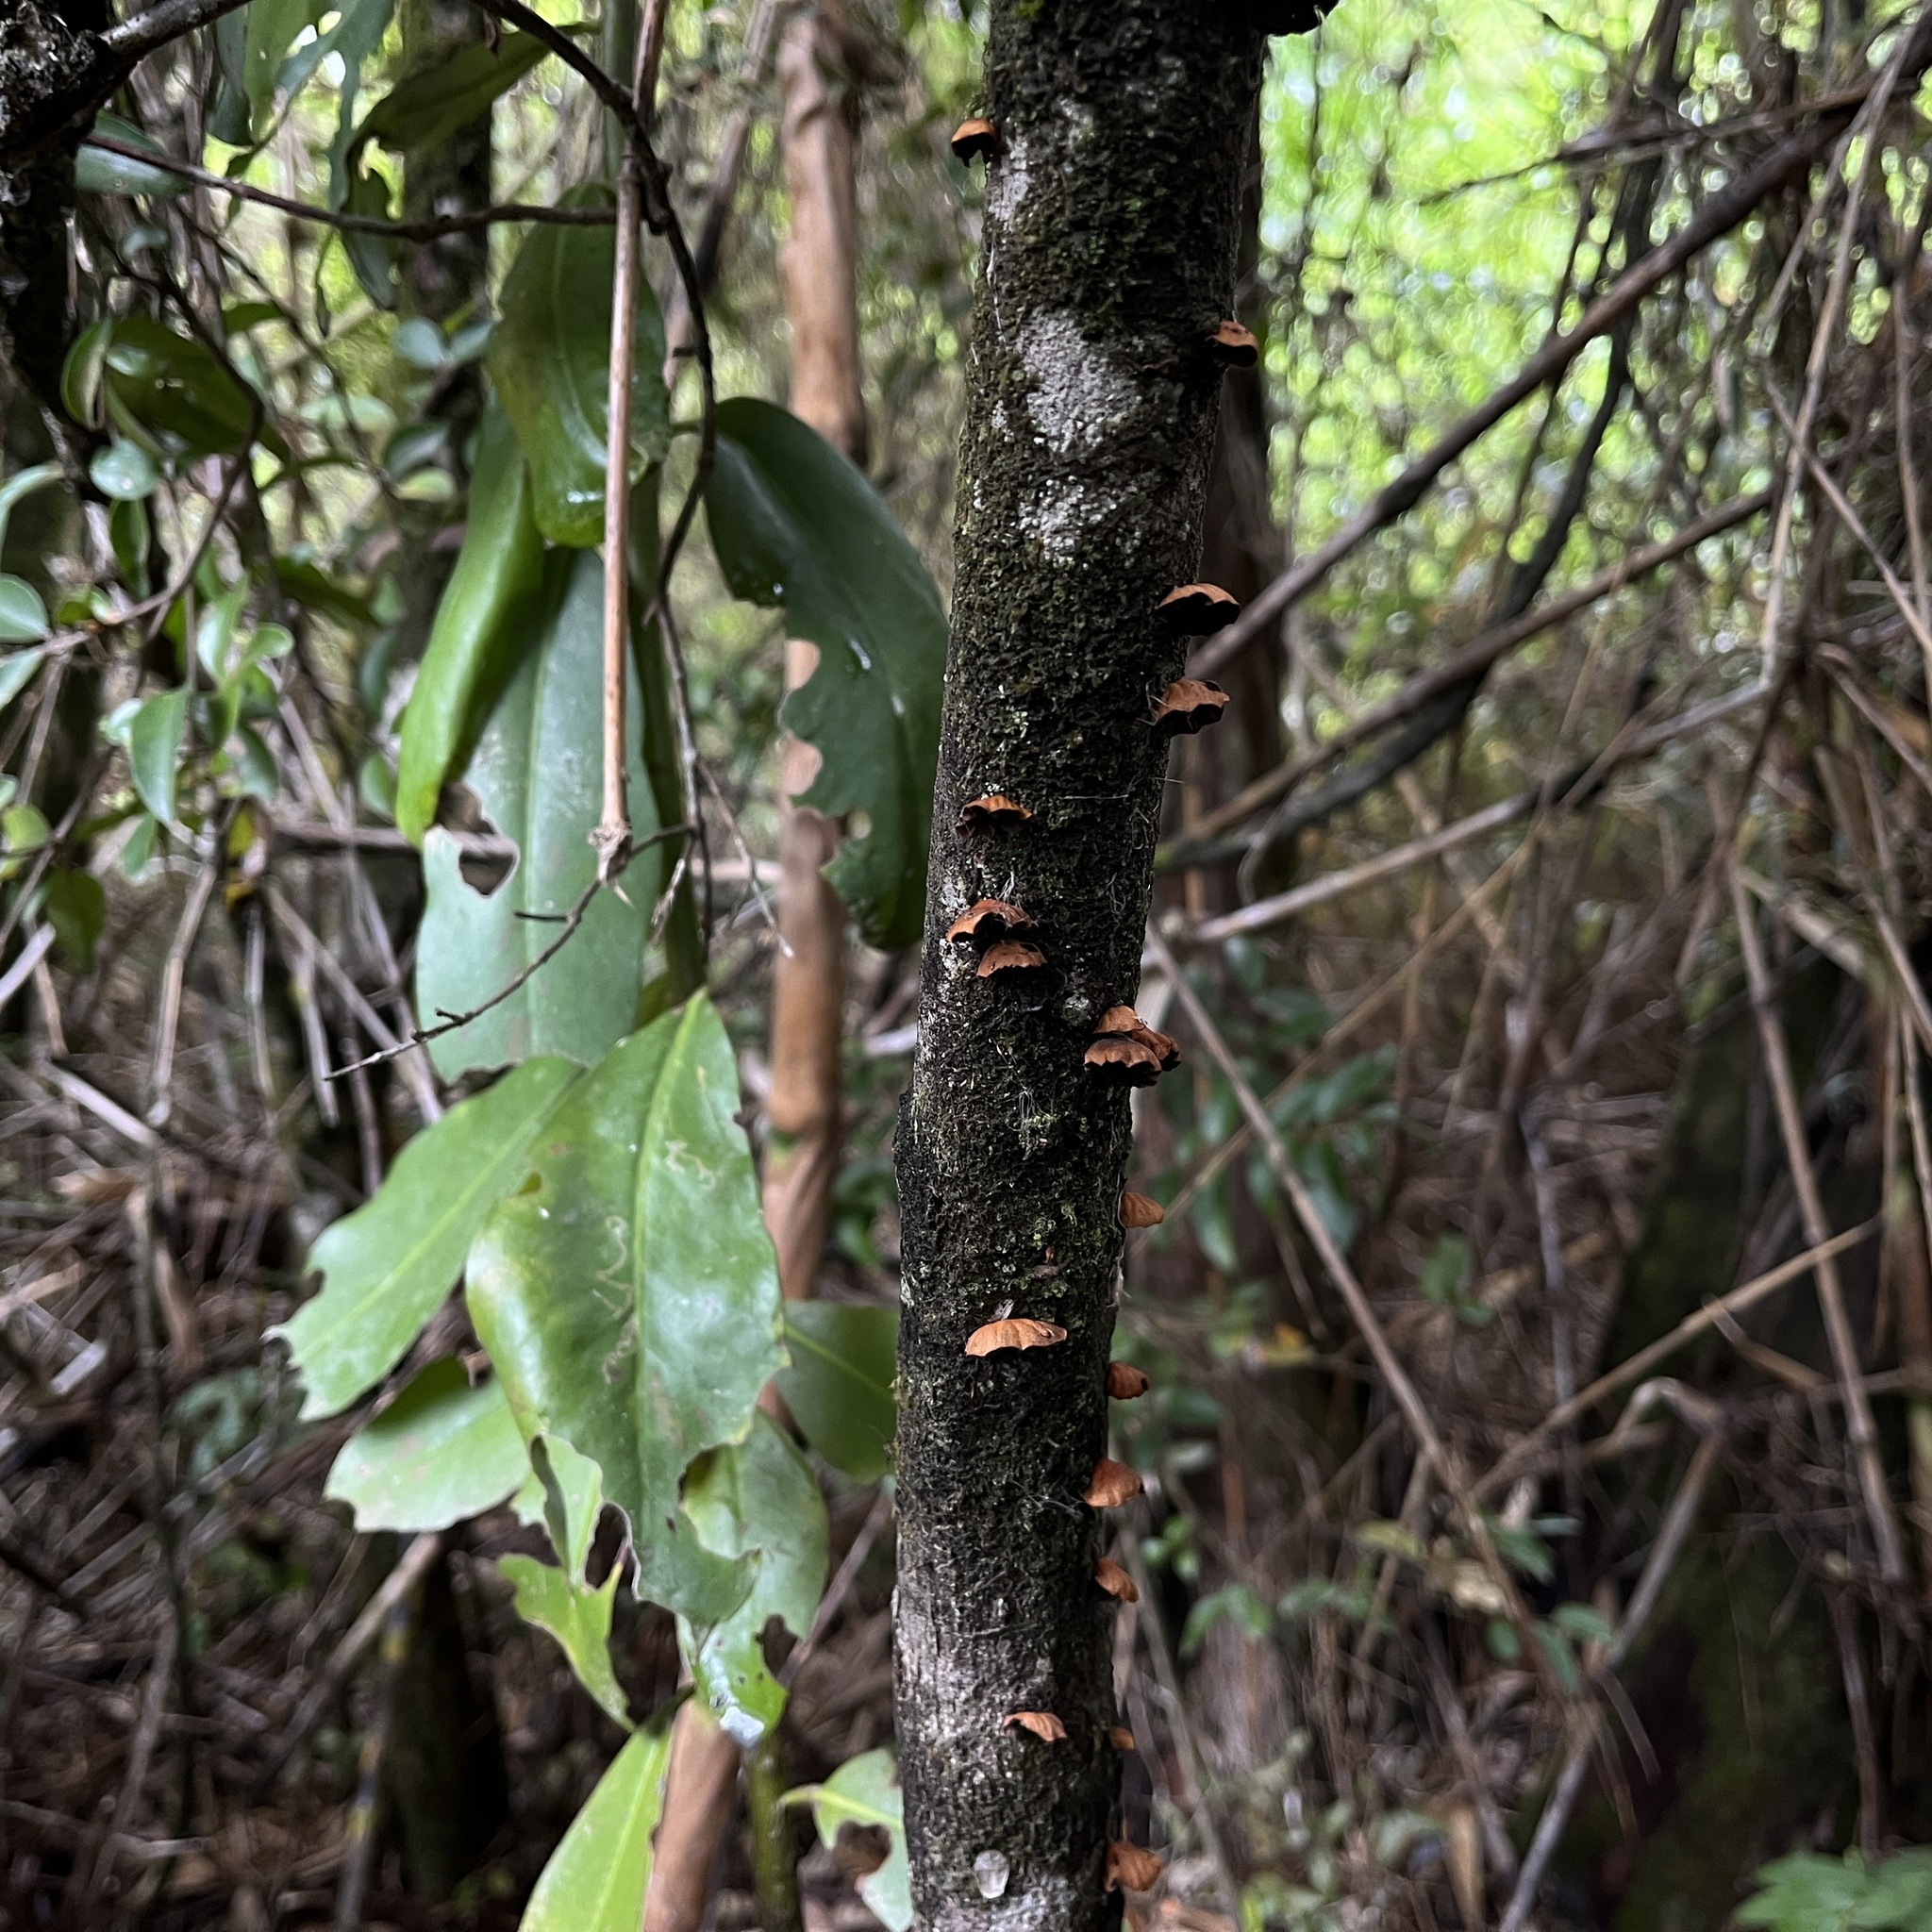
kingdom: Fungi
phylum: Basidiomycota
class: Agaricomycetes
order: Agaricales
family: Omphalotaceae
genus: Anthracophyllum
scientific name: Anthracophyllum discolor
